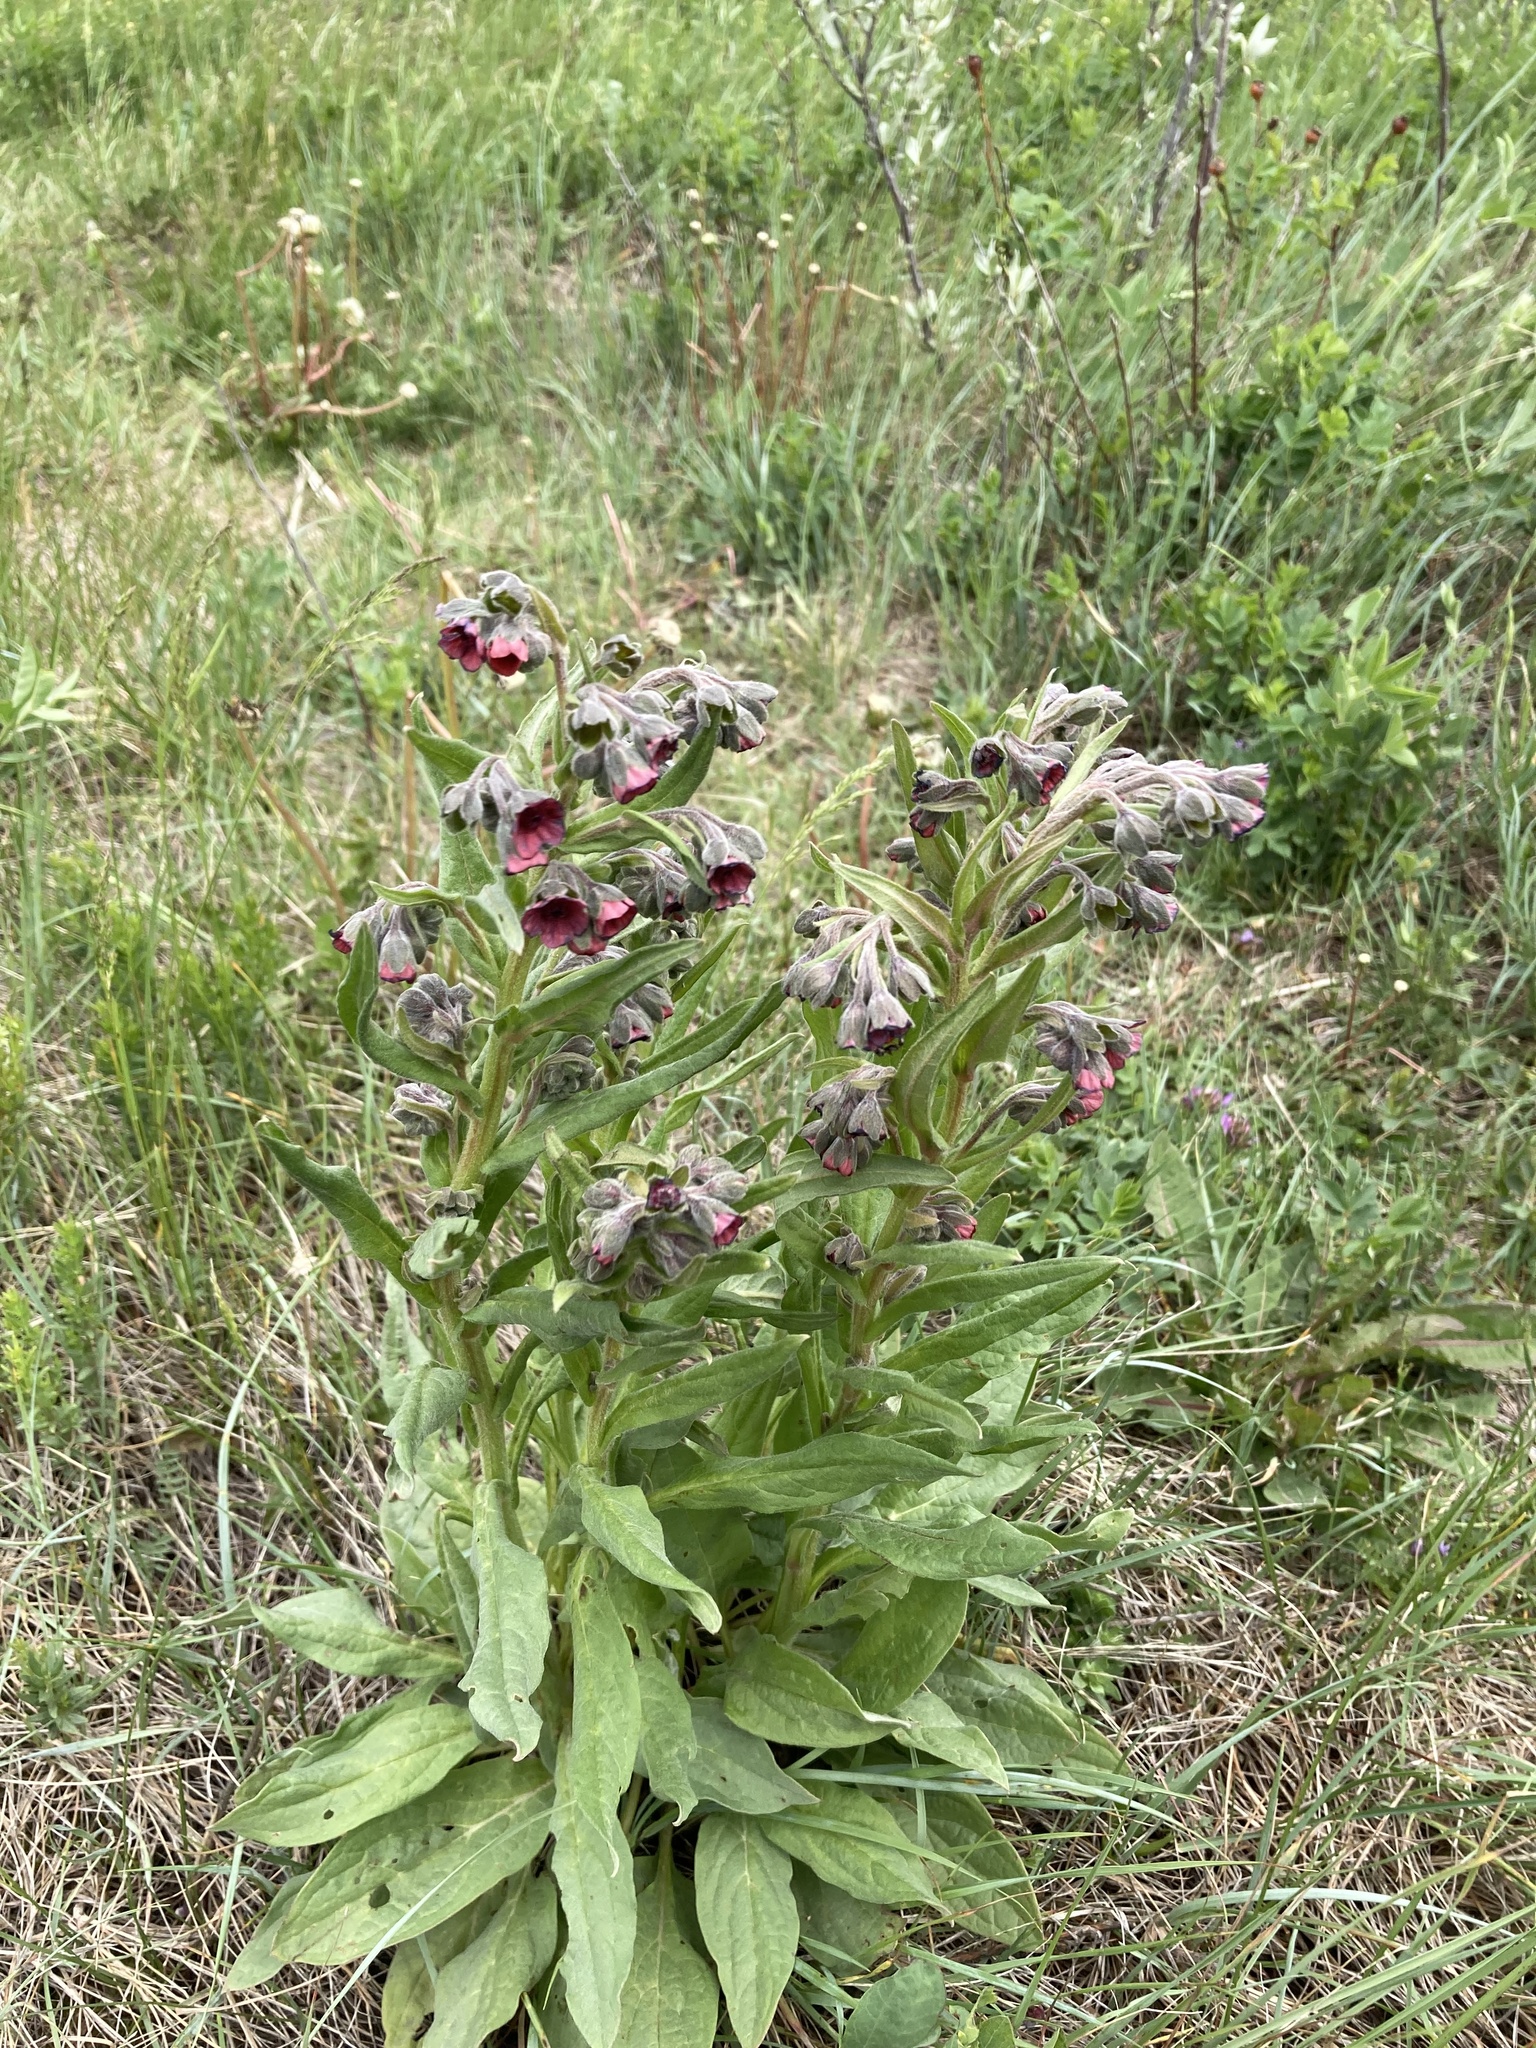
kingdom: Plantae
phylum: Tracheophyta
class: Magnoliopsida
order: Boraginales
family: Boraginaceae
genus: Cynoglossum
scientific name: Cynoglossum officinale
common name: Hound's-tongue
